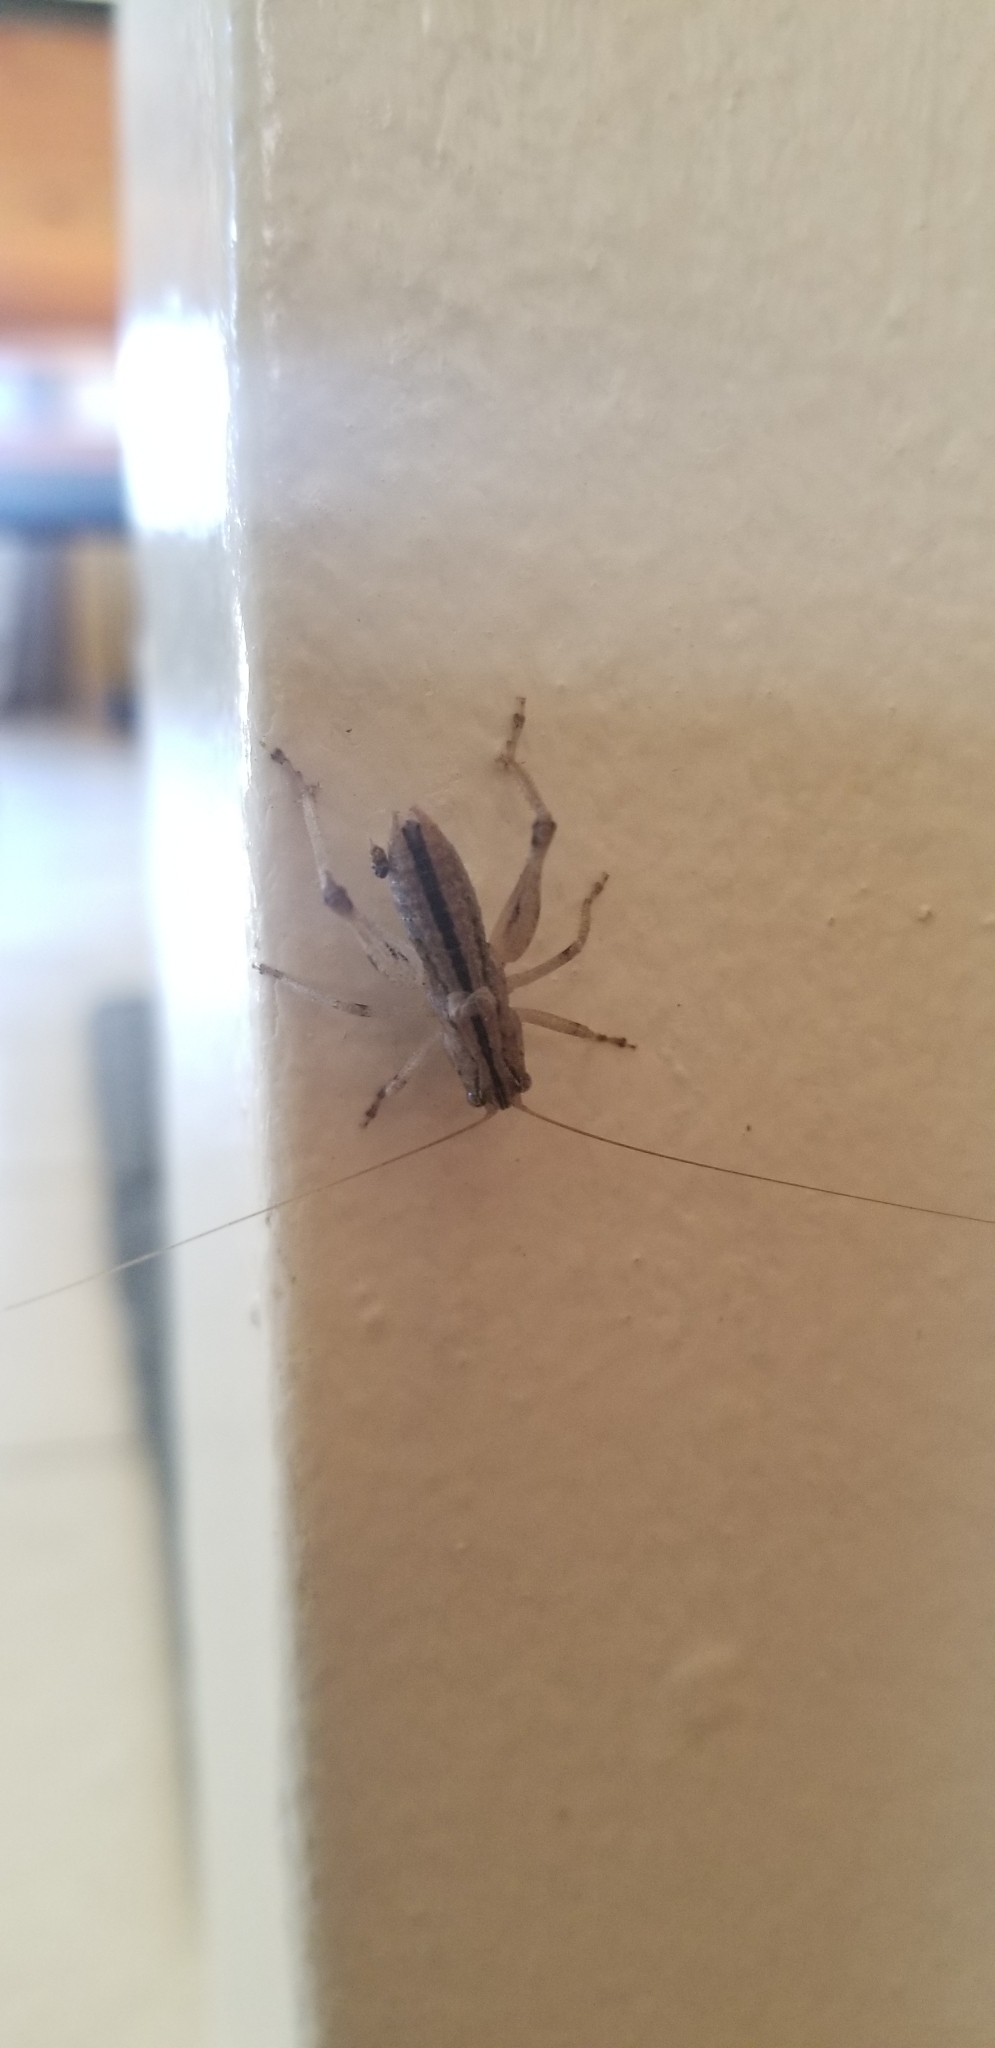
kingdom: Animalia
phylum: Arthropoda
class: Insecta
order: Orthoptera
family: Tettigoniidae
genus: Ateloplus
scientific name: Ateloplus notatus
